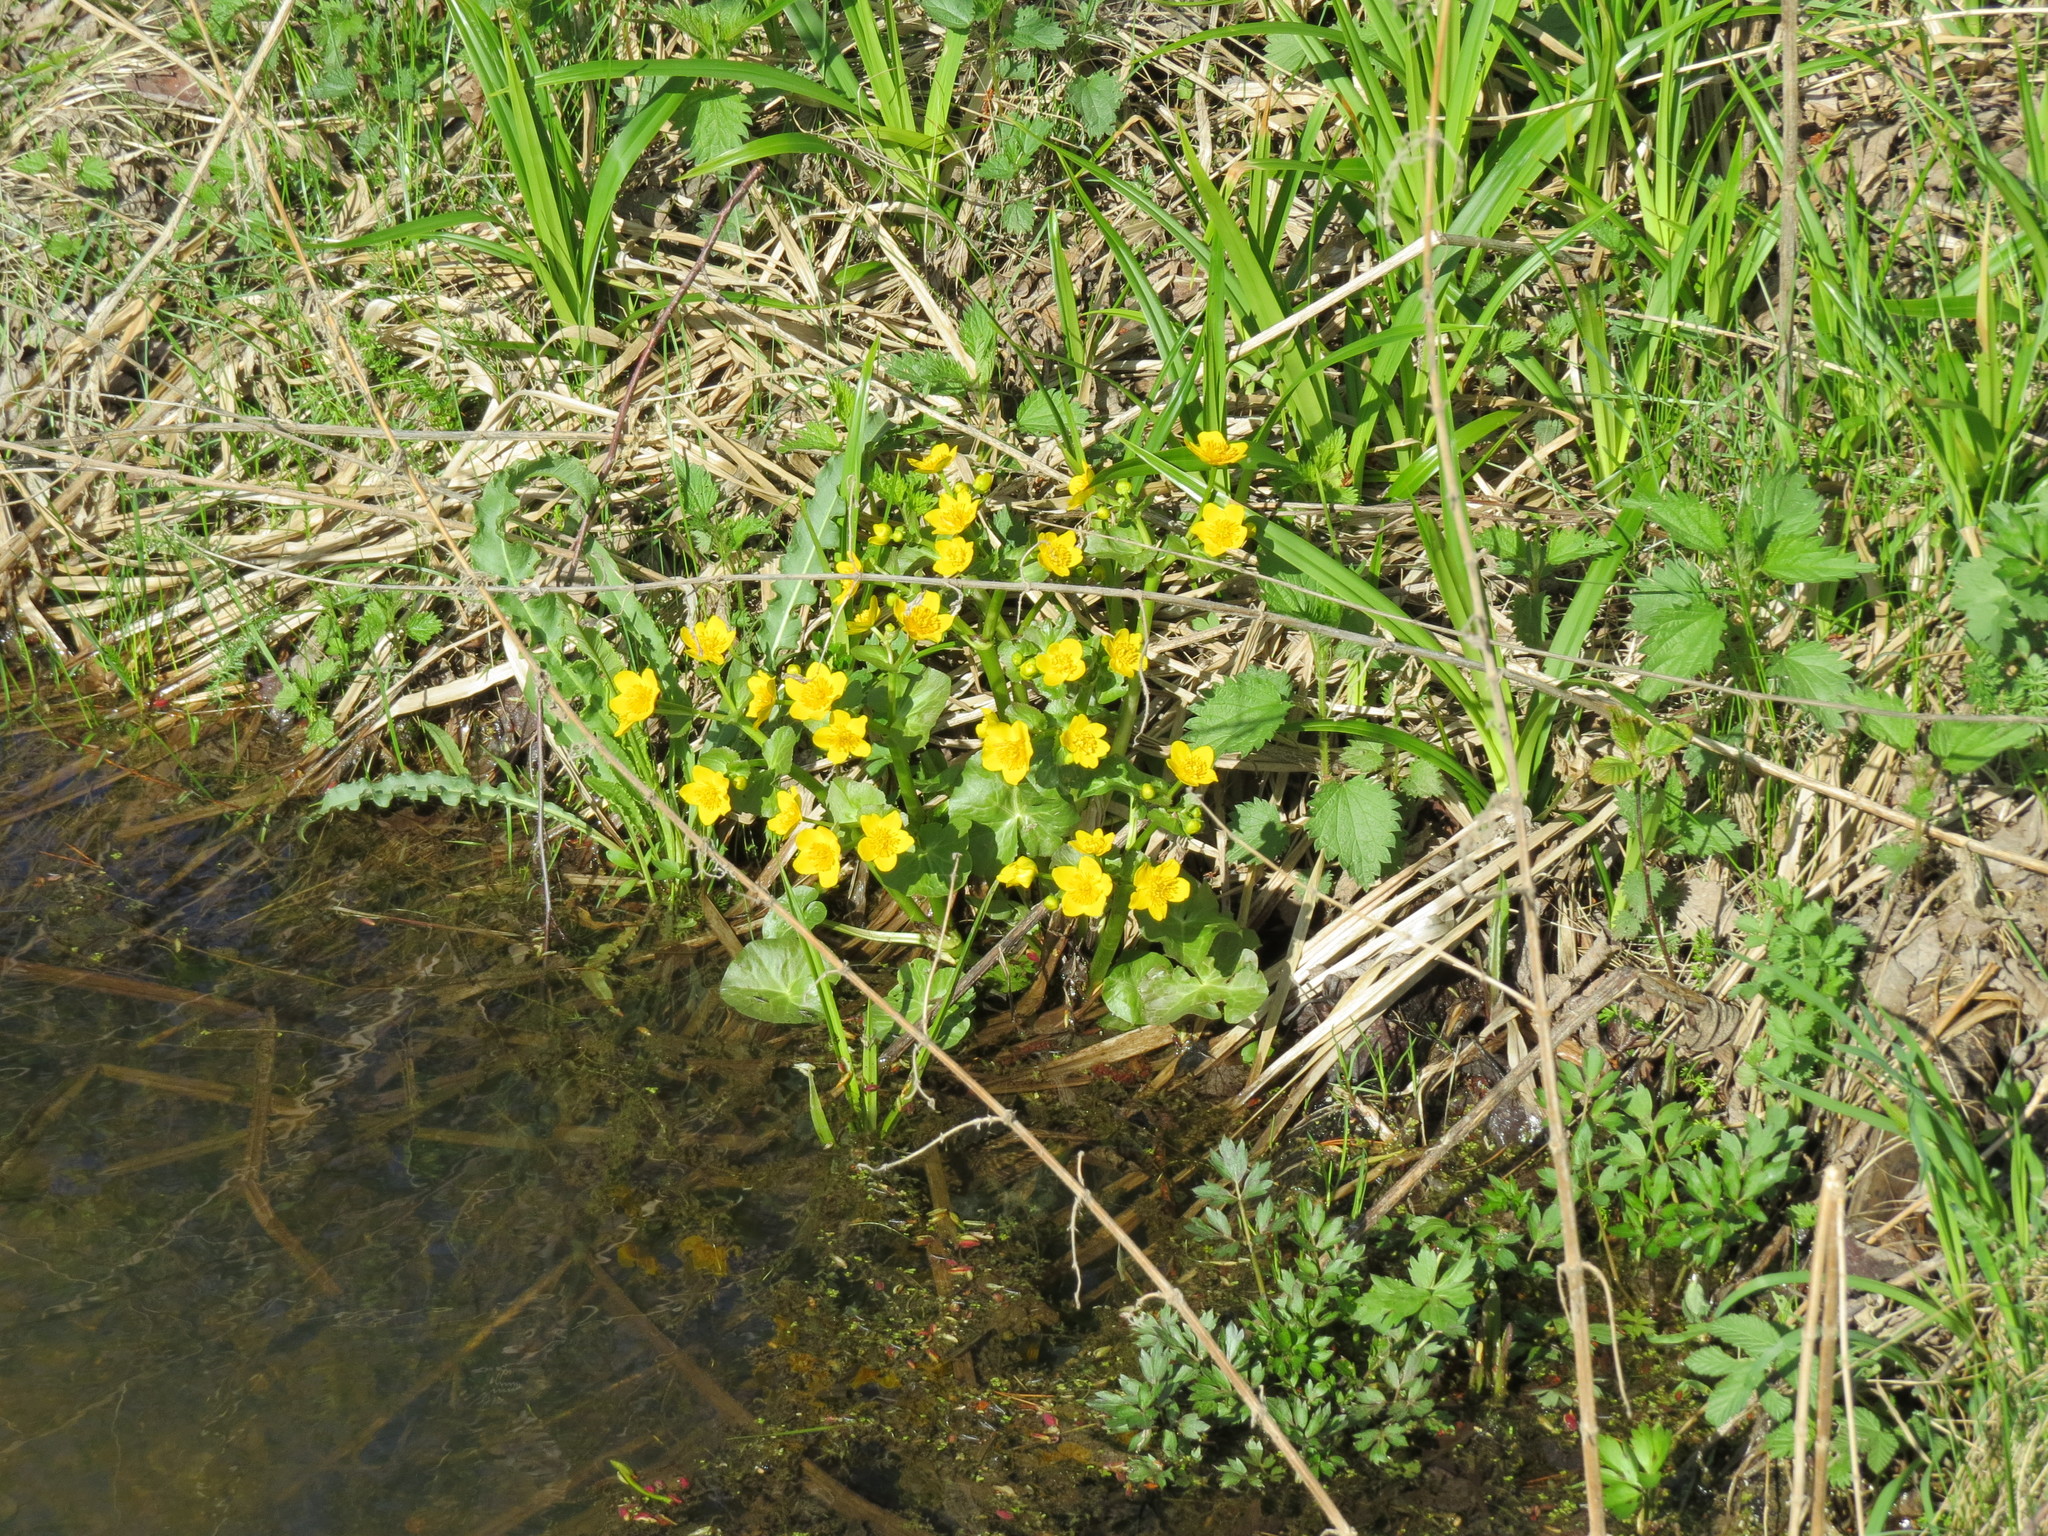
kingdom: Plantae
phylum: Tracheophyta
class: Magnoliopsida
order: Ranunculales
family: Ranunculaceae
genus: Caltha
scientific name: Caltha palustris
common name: Marsh marigold
